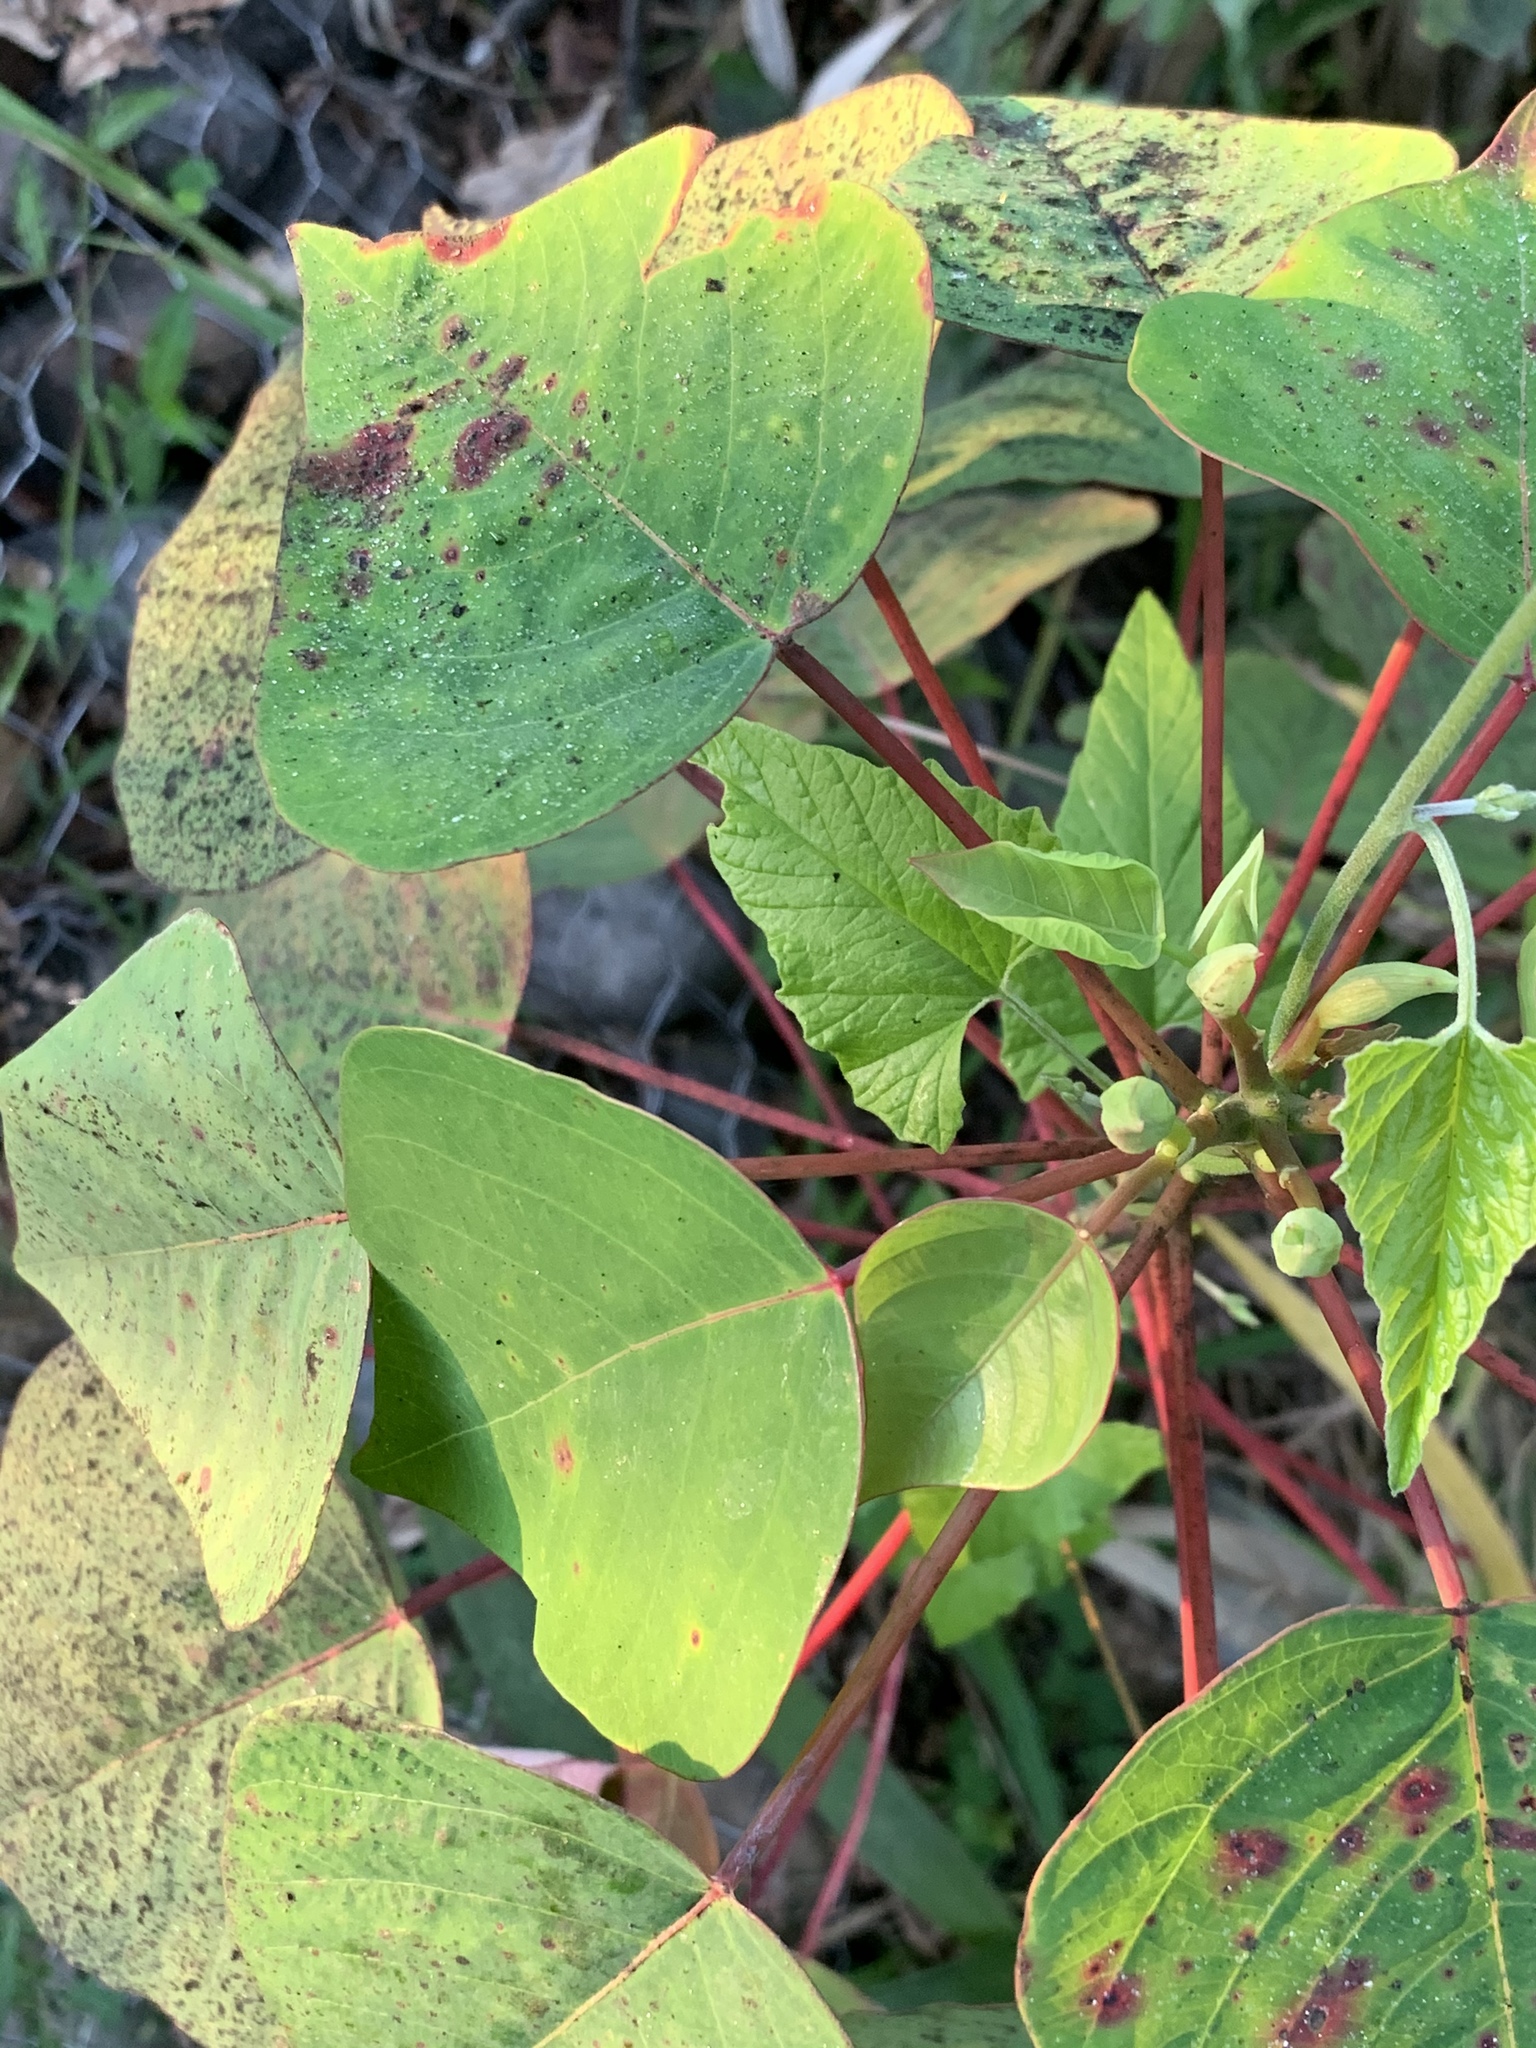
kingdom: Plantae
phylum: Tracheophyta
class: Magnoliopsida
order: Malpighiales
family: Euphorbiaceae
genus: Homalanthus
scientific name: Homalanthus populifolius
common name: Queensland poplar
